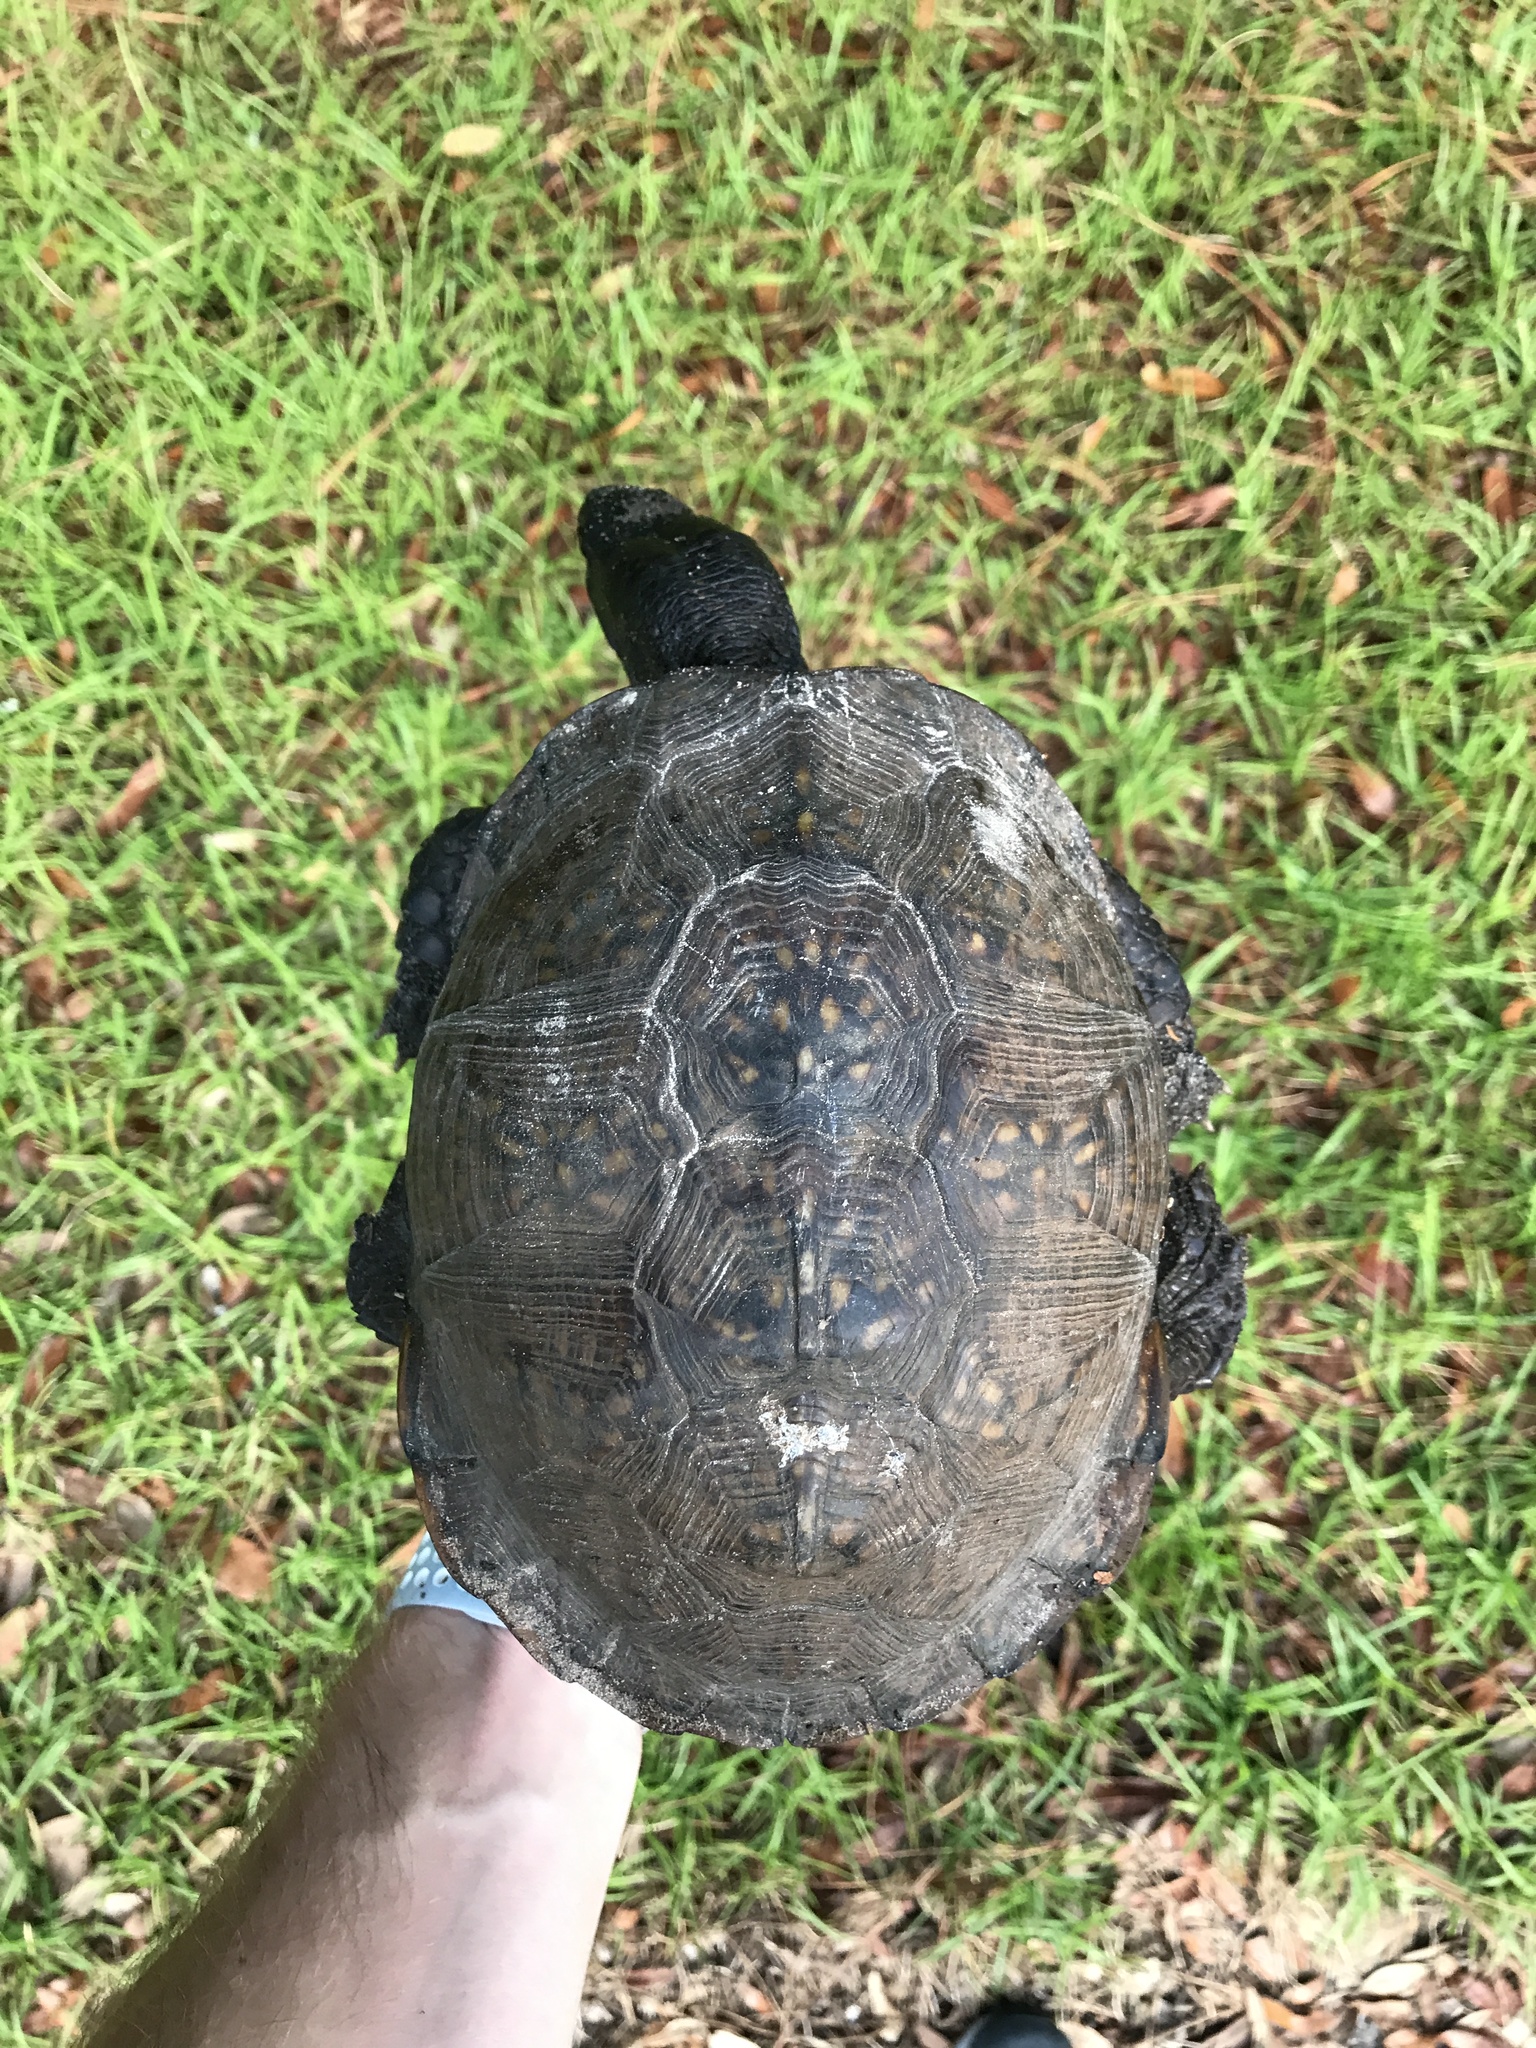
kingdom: Animalia
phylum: Chordata
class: Testudines
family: Emydidae
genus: Terrapene
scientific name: Terrapene carolina
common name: Common box turtle
